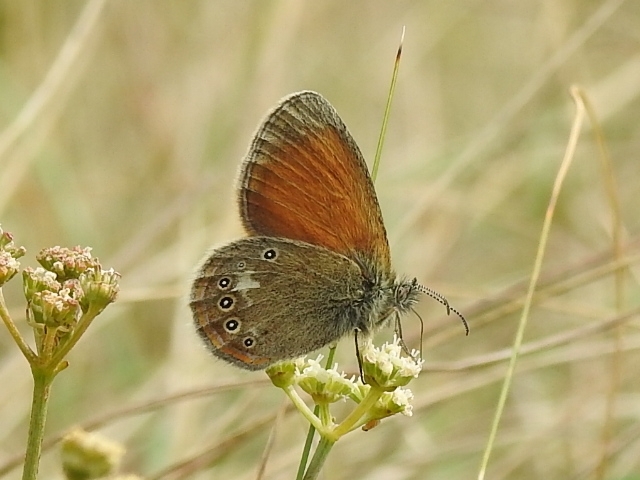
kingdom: Animalia
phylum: Arthropoda
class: Insecta
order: Lepidoptera
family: Nymphalidae
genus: Coenonympha
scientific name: Coenonympha iphis
